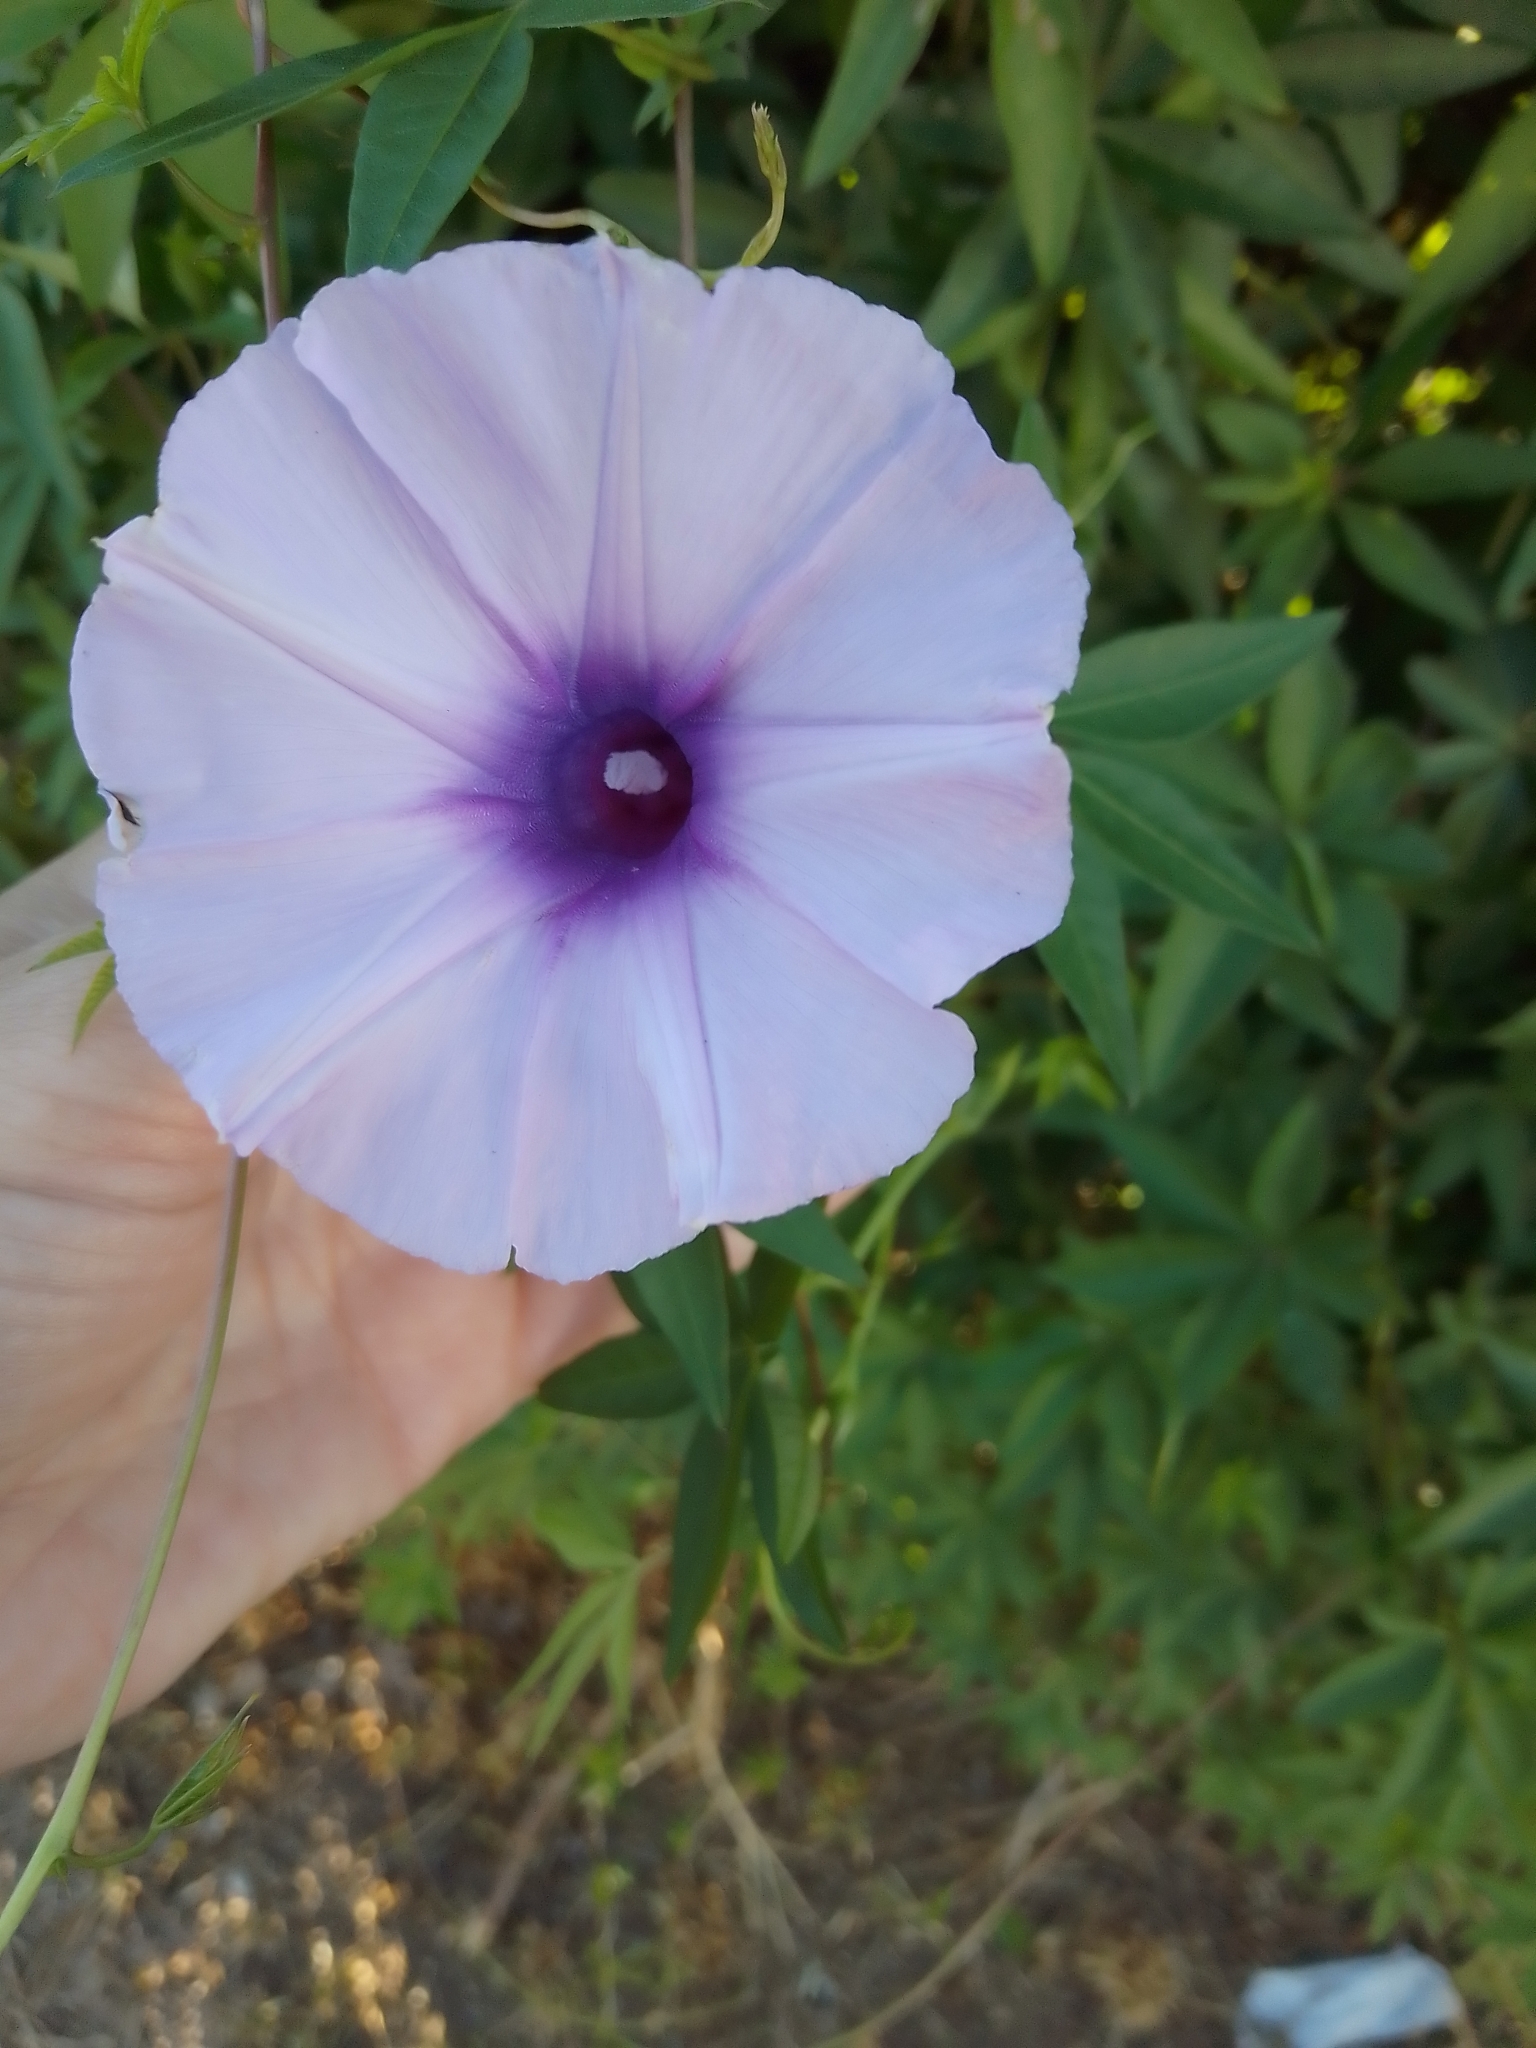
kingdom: Plantae
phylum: Tracheophyta
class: Magnoliopsida
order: Solanales
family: Convolvulaceae
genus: Ipomoea
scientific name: Ipomoea cairica
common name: Mile a minute vine
